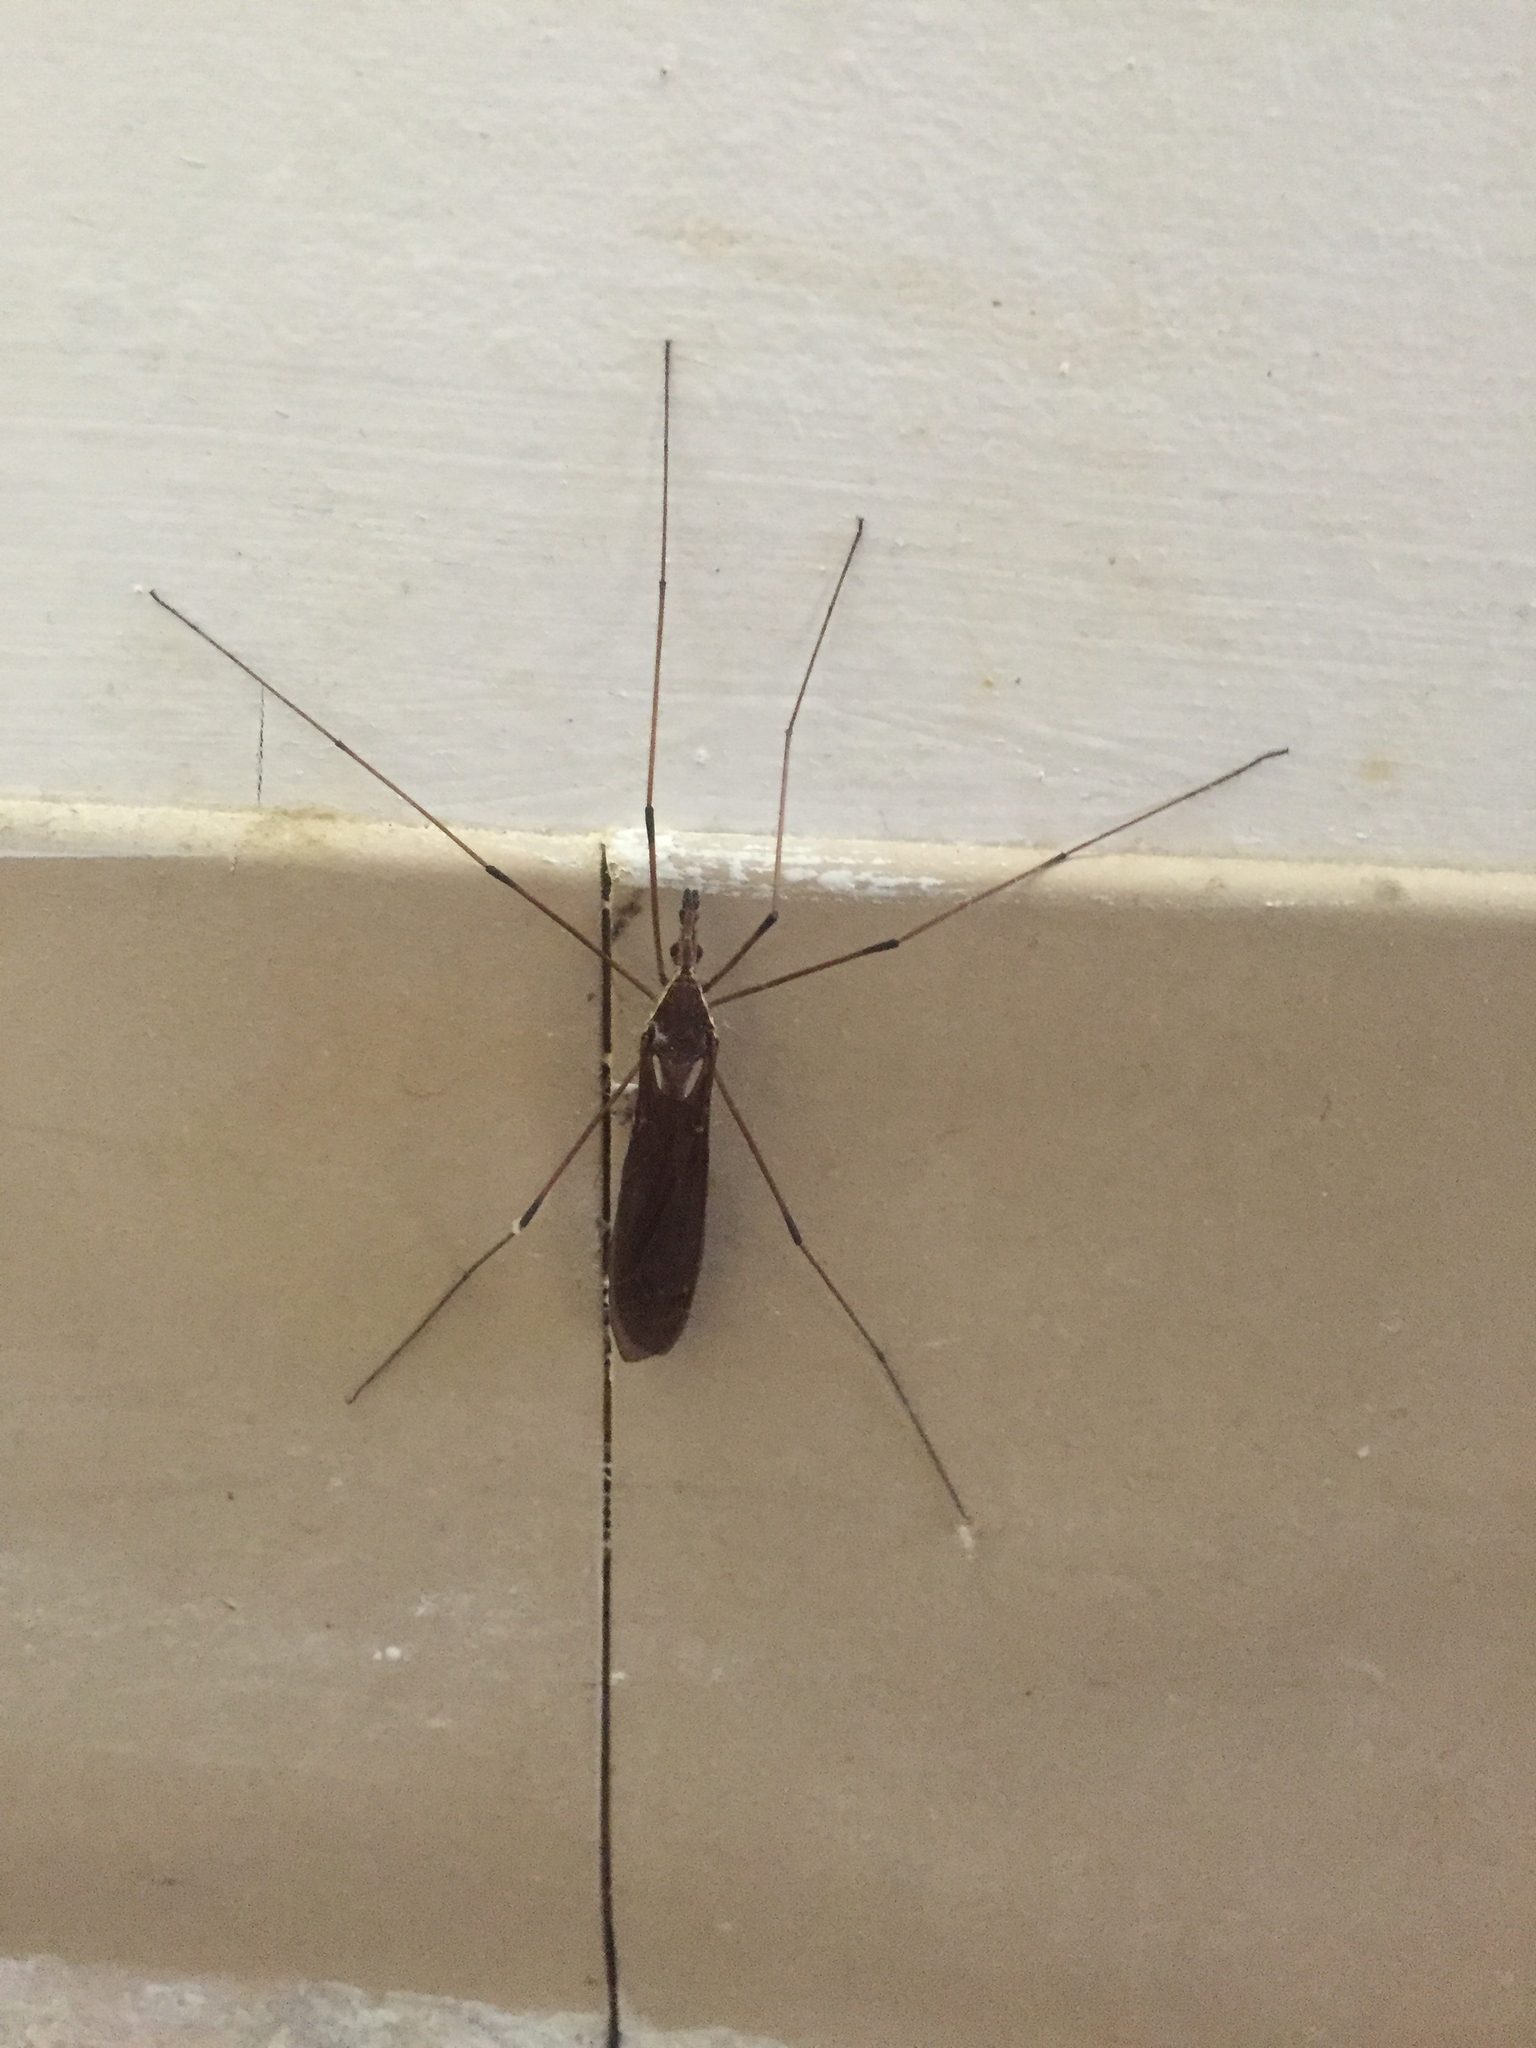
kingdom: Animalia
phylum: Arthropoda
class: Insecta
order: Diptera
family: Tipulidae
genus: Holorusia
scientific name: Holorusia hespera
